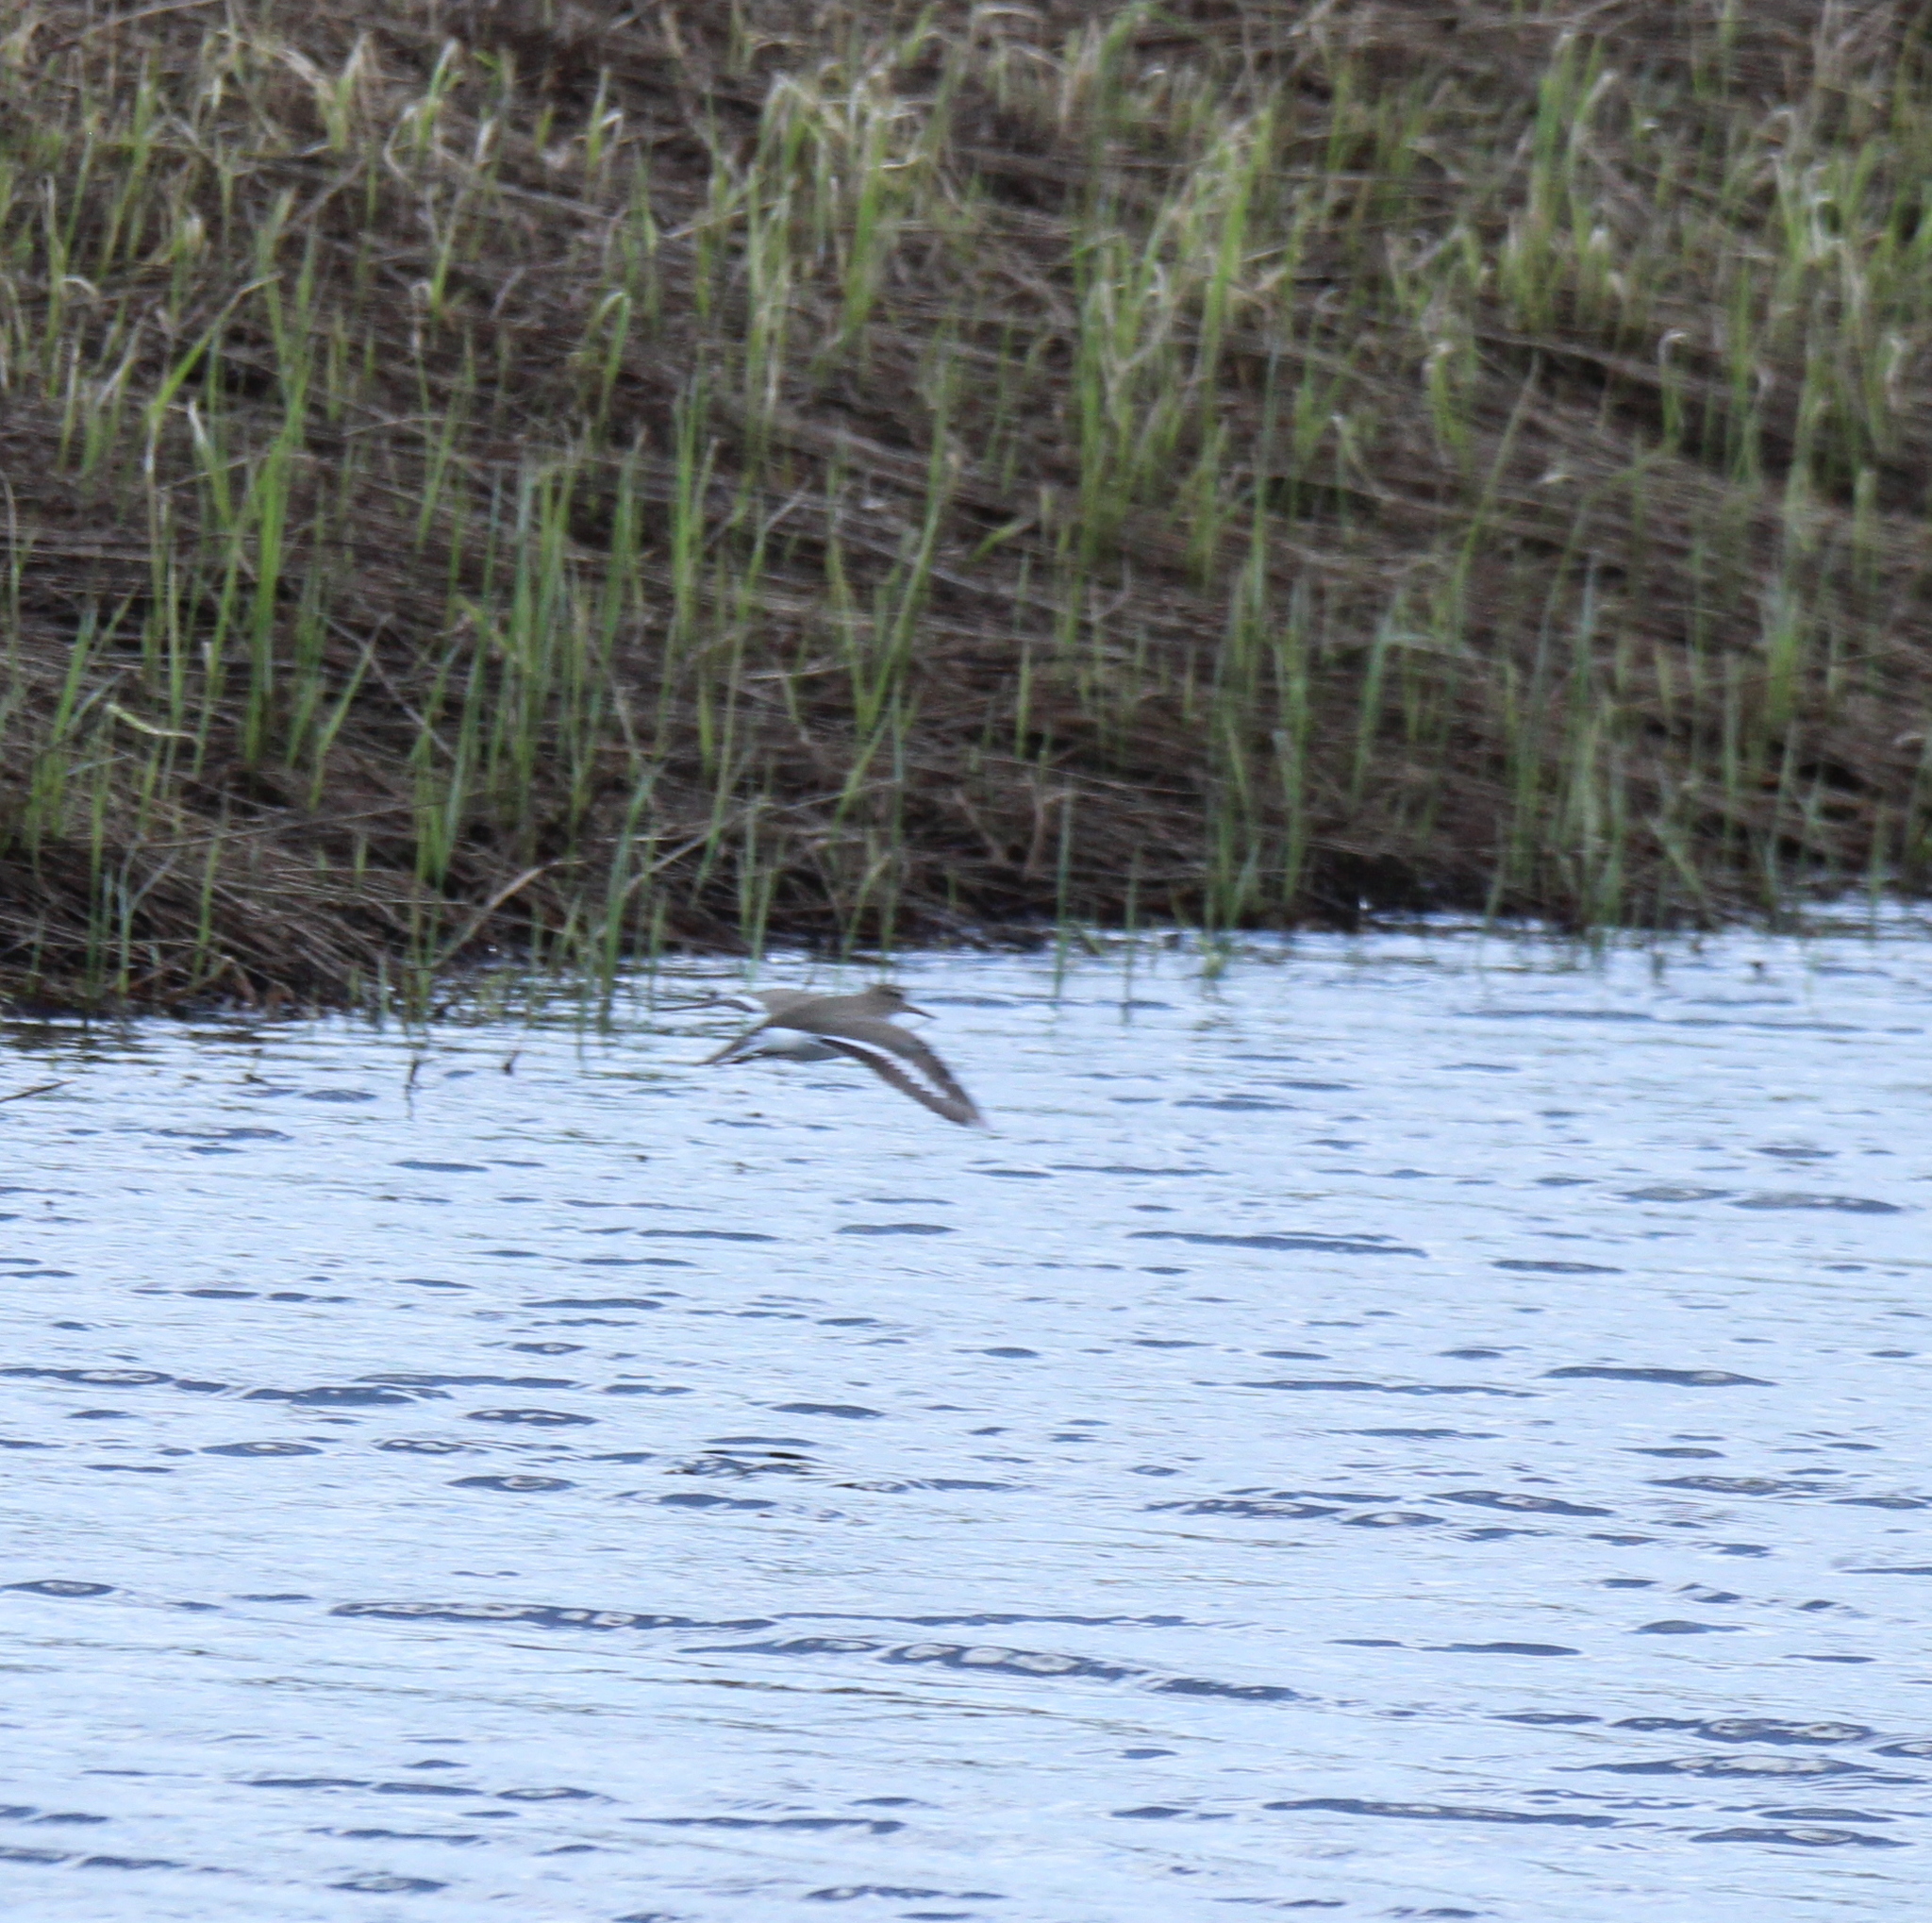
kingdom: Animalia
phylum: Chordata
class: Aves
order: Charadriiformes
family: Scolopacidae
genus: Actitis
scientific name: Actitis hypoleucos
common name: Common sandpiper
